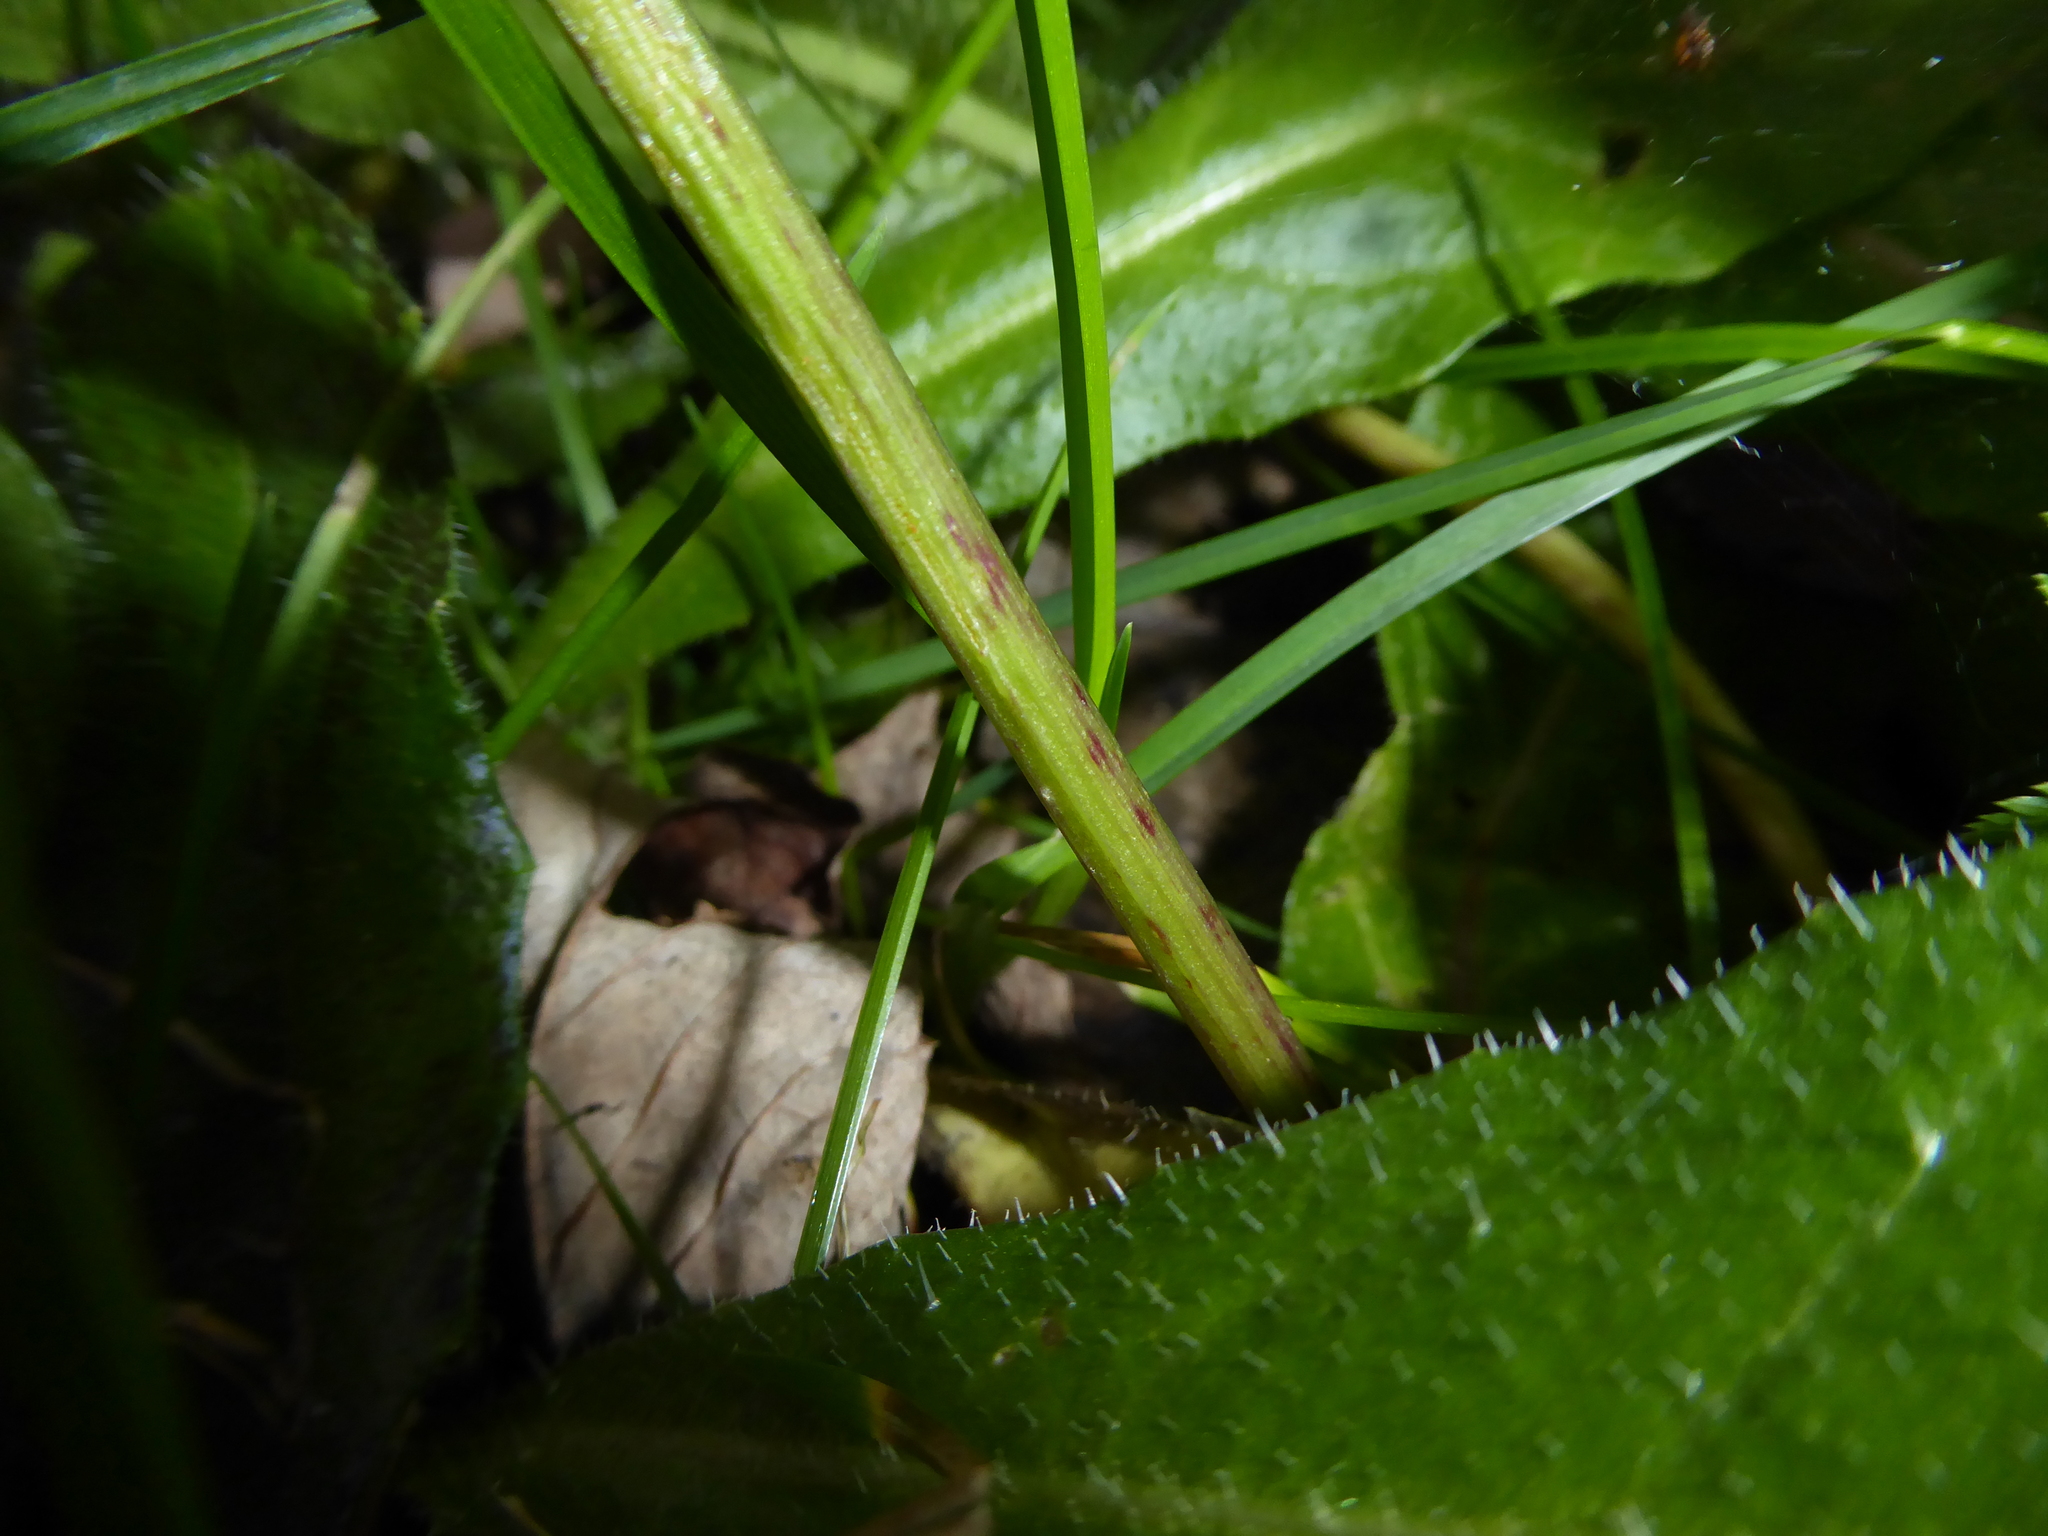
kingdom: Plantae
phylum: Tracheophyta
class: Magnoliopsida
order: Apiales
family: Apiaceae
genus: Conium
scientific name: Conium maculatum
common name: Hemlock
